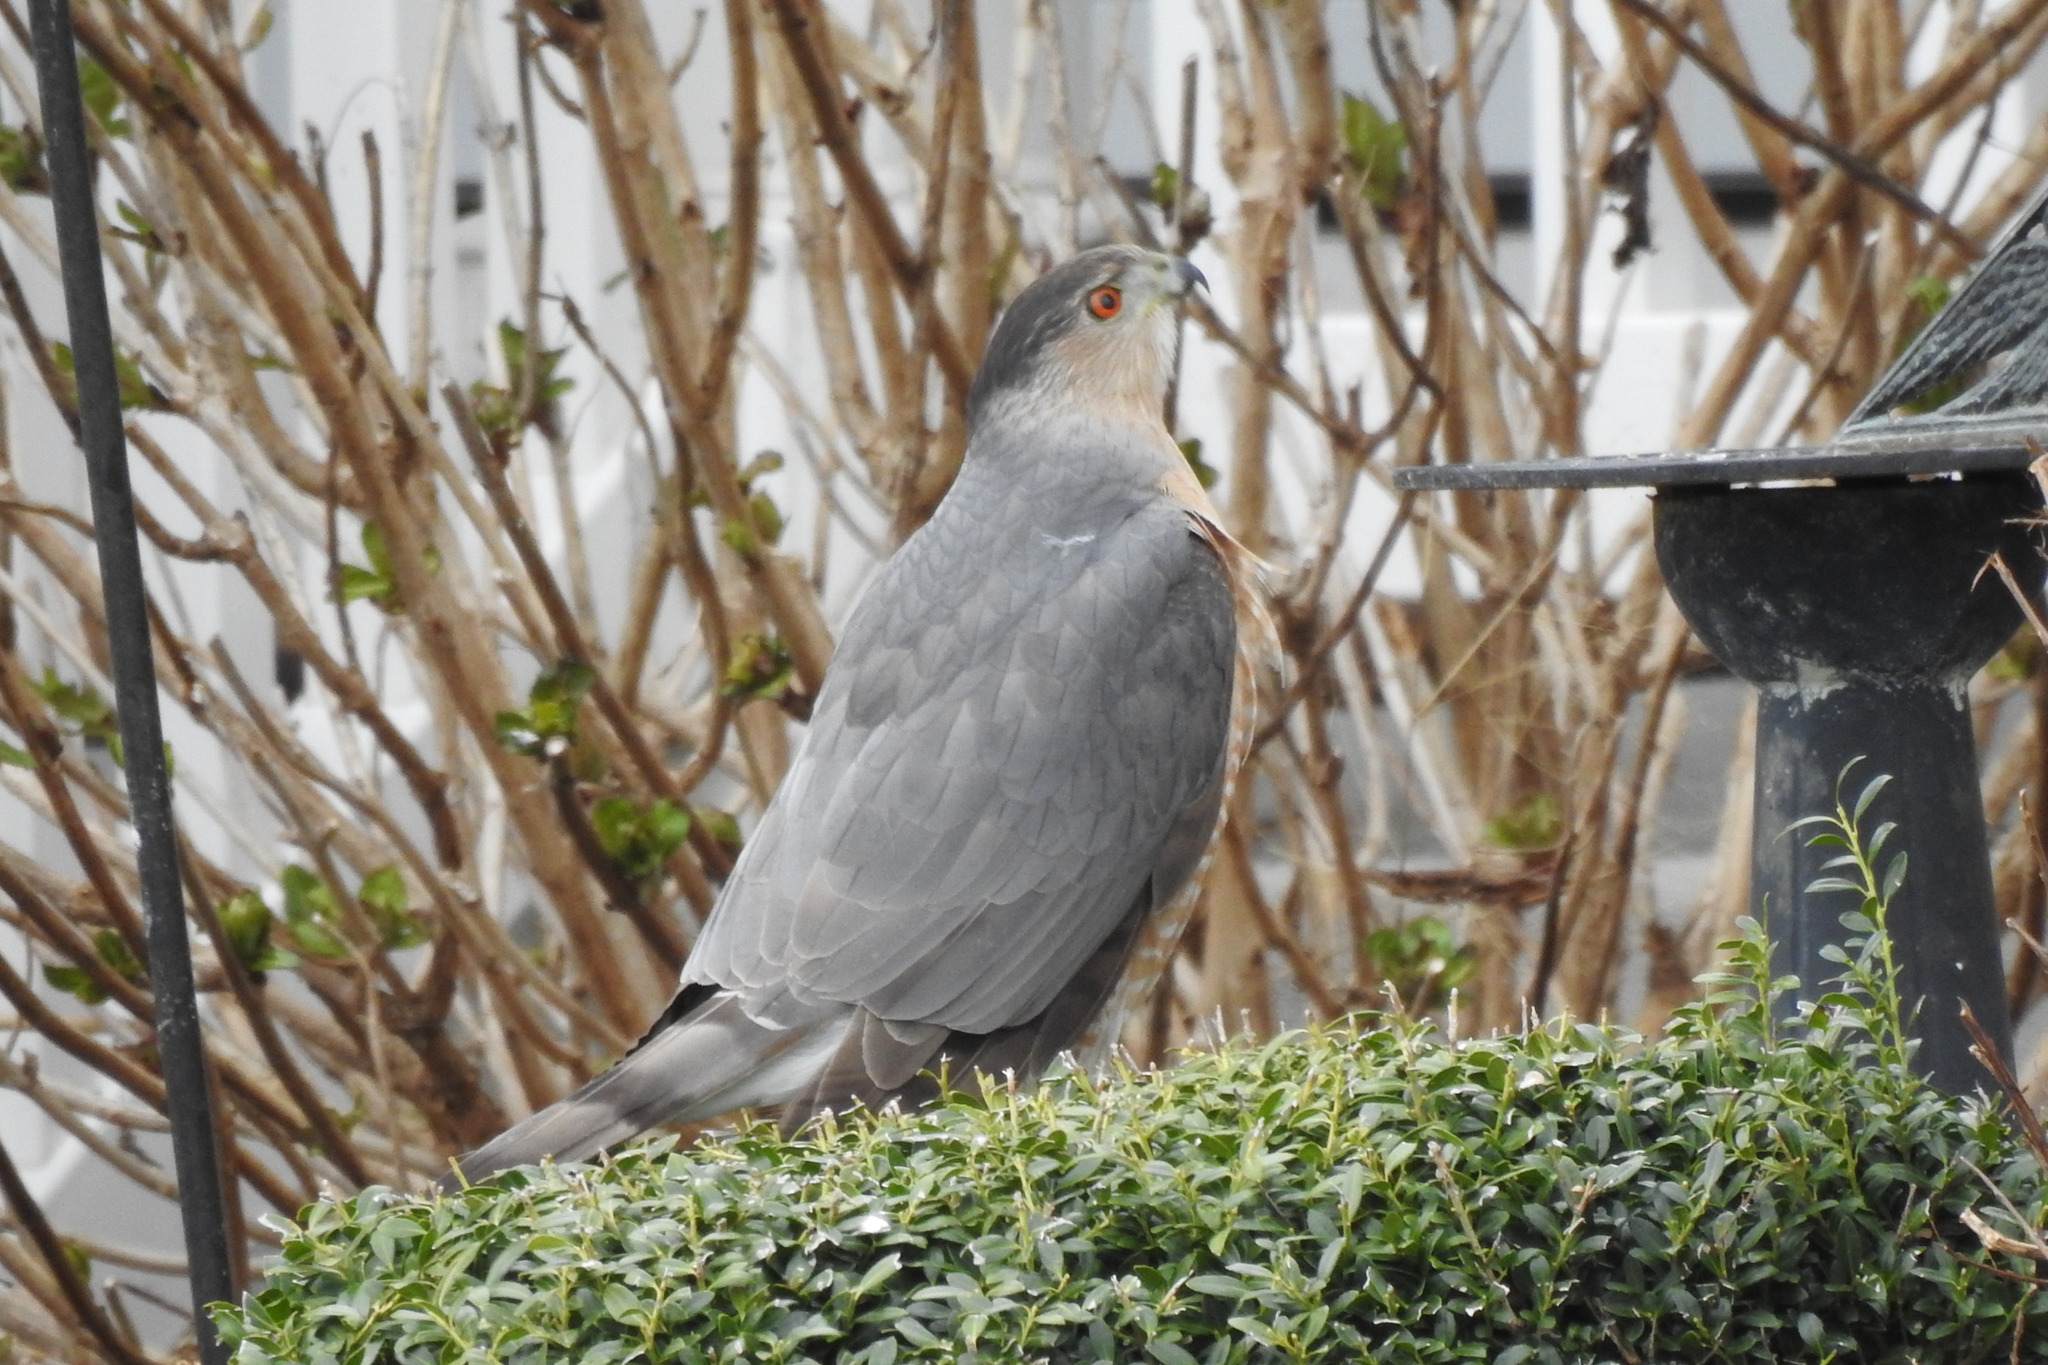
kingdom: Animalia
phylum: Chordata
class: Aves
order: Accipitriformes
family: Accipitridae
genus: Accipiter
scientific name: Accipiter cooperii
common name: Cooper's hawk
